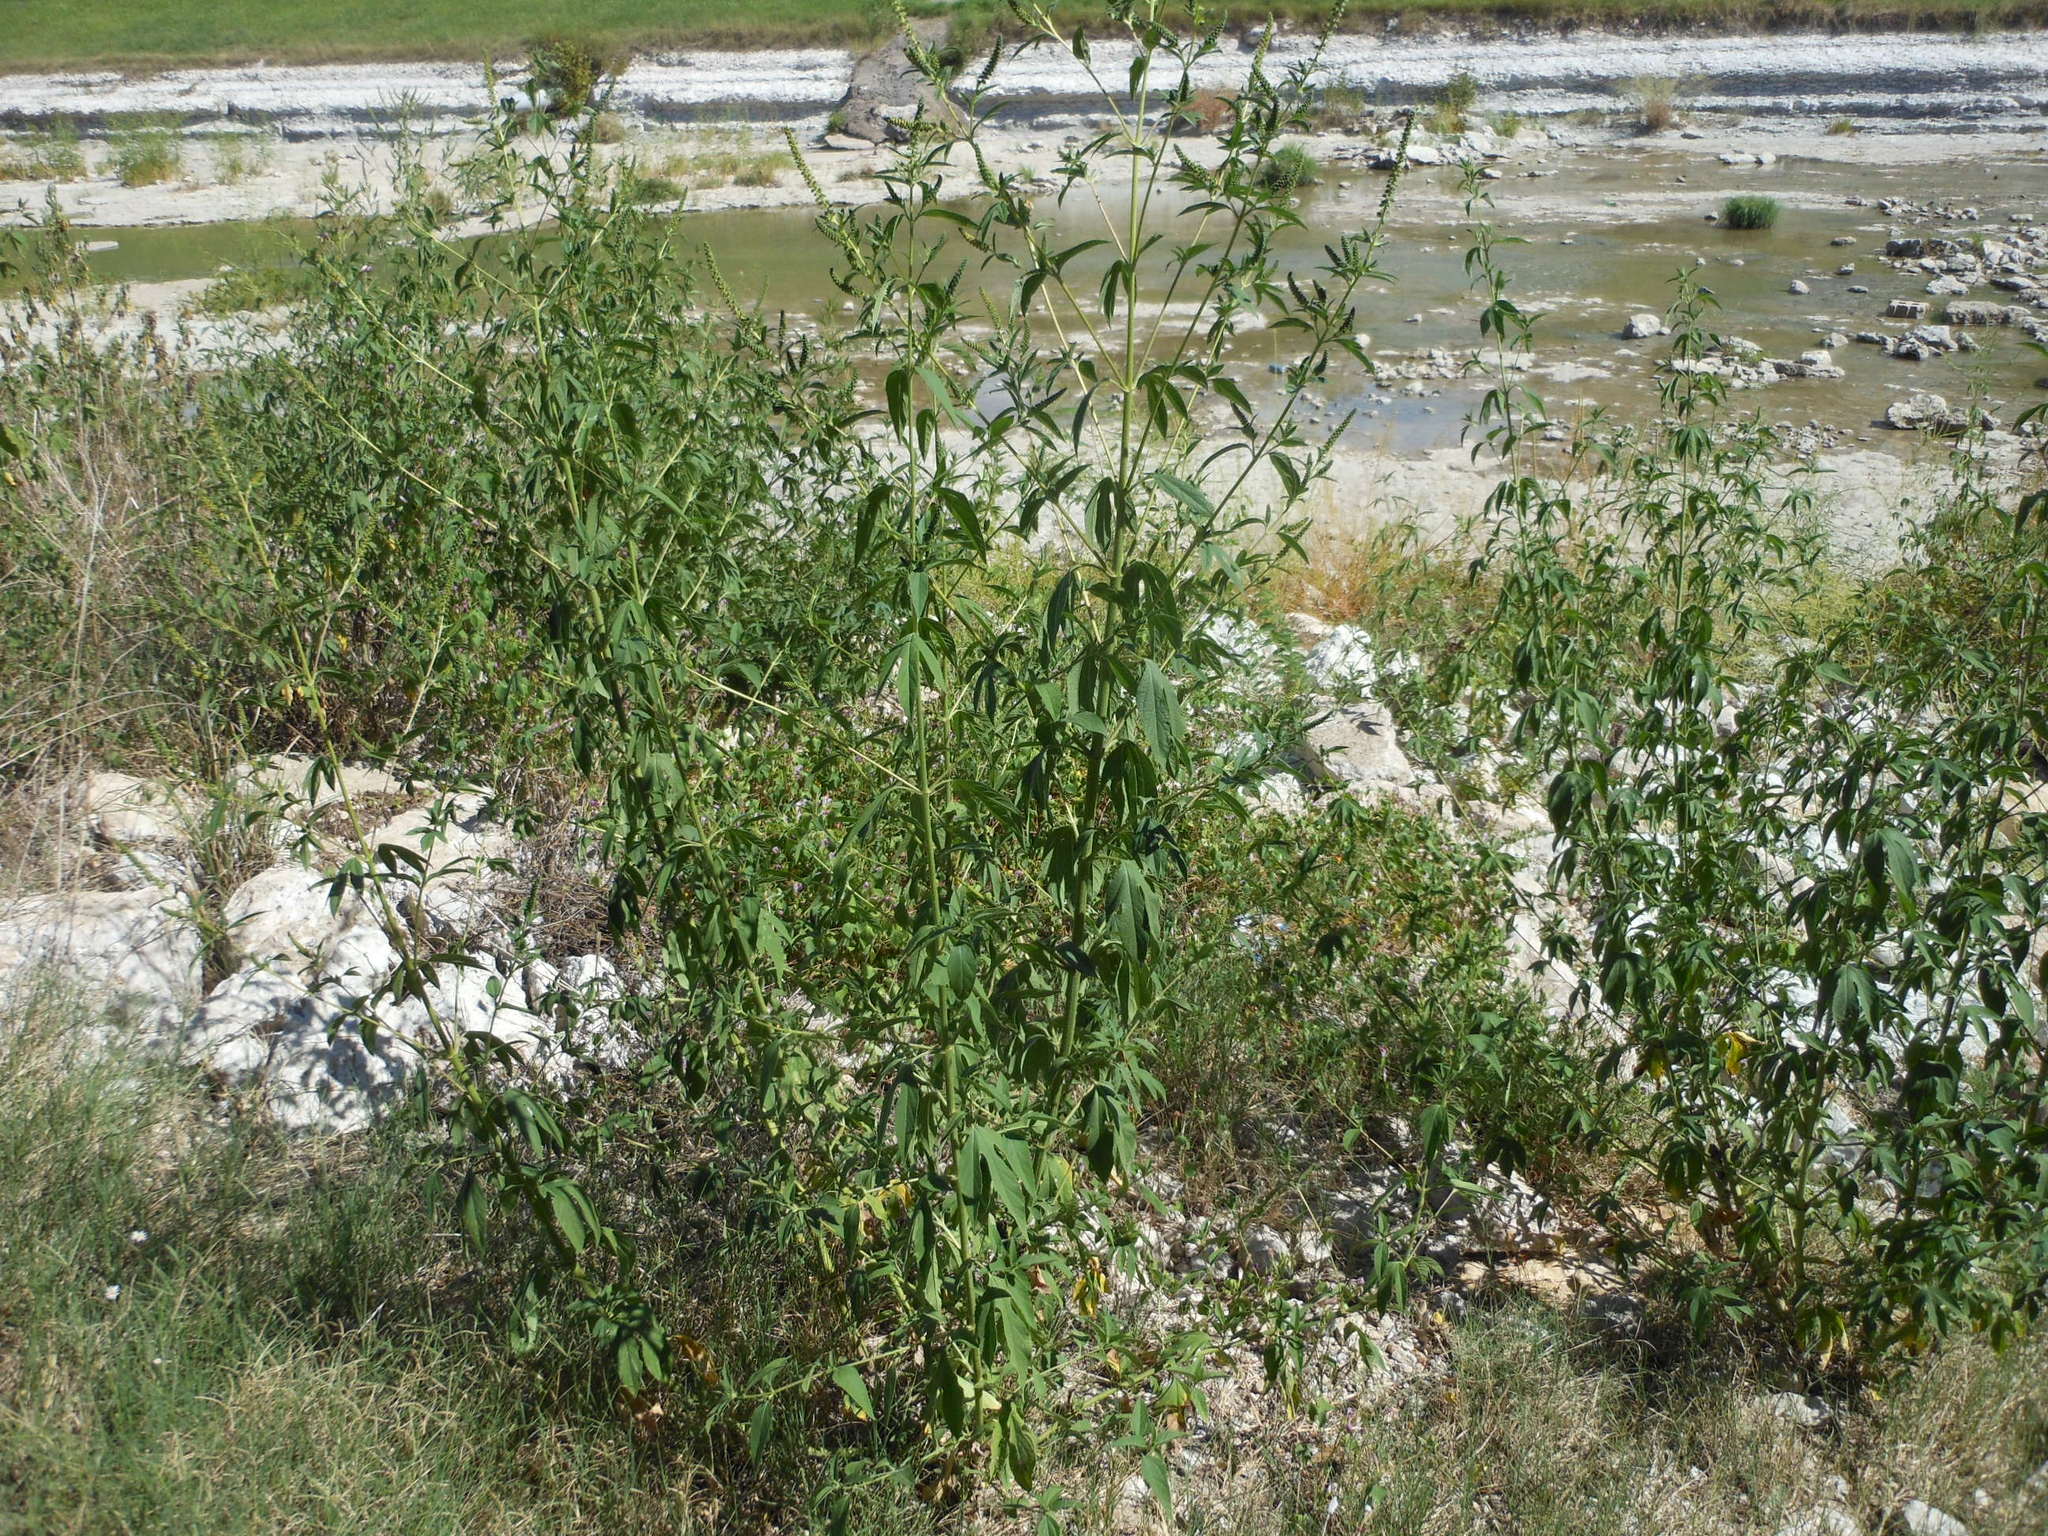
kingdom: Plantae
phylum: Tracheophyta
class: Magnoliopsida
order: Asterales
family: Asteraceae
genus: Ambrosia
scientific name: Ambrosia trifida
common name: Giant ragweed
